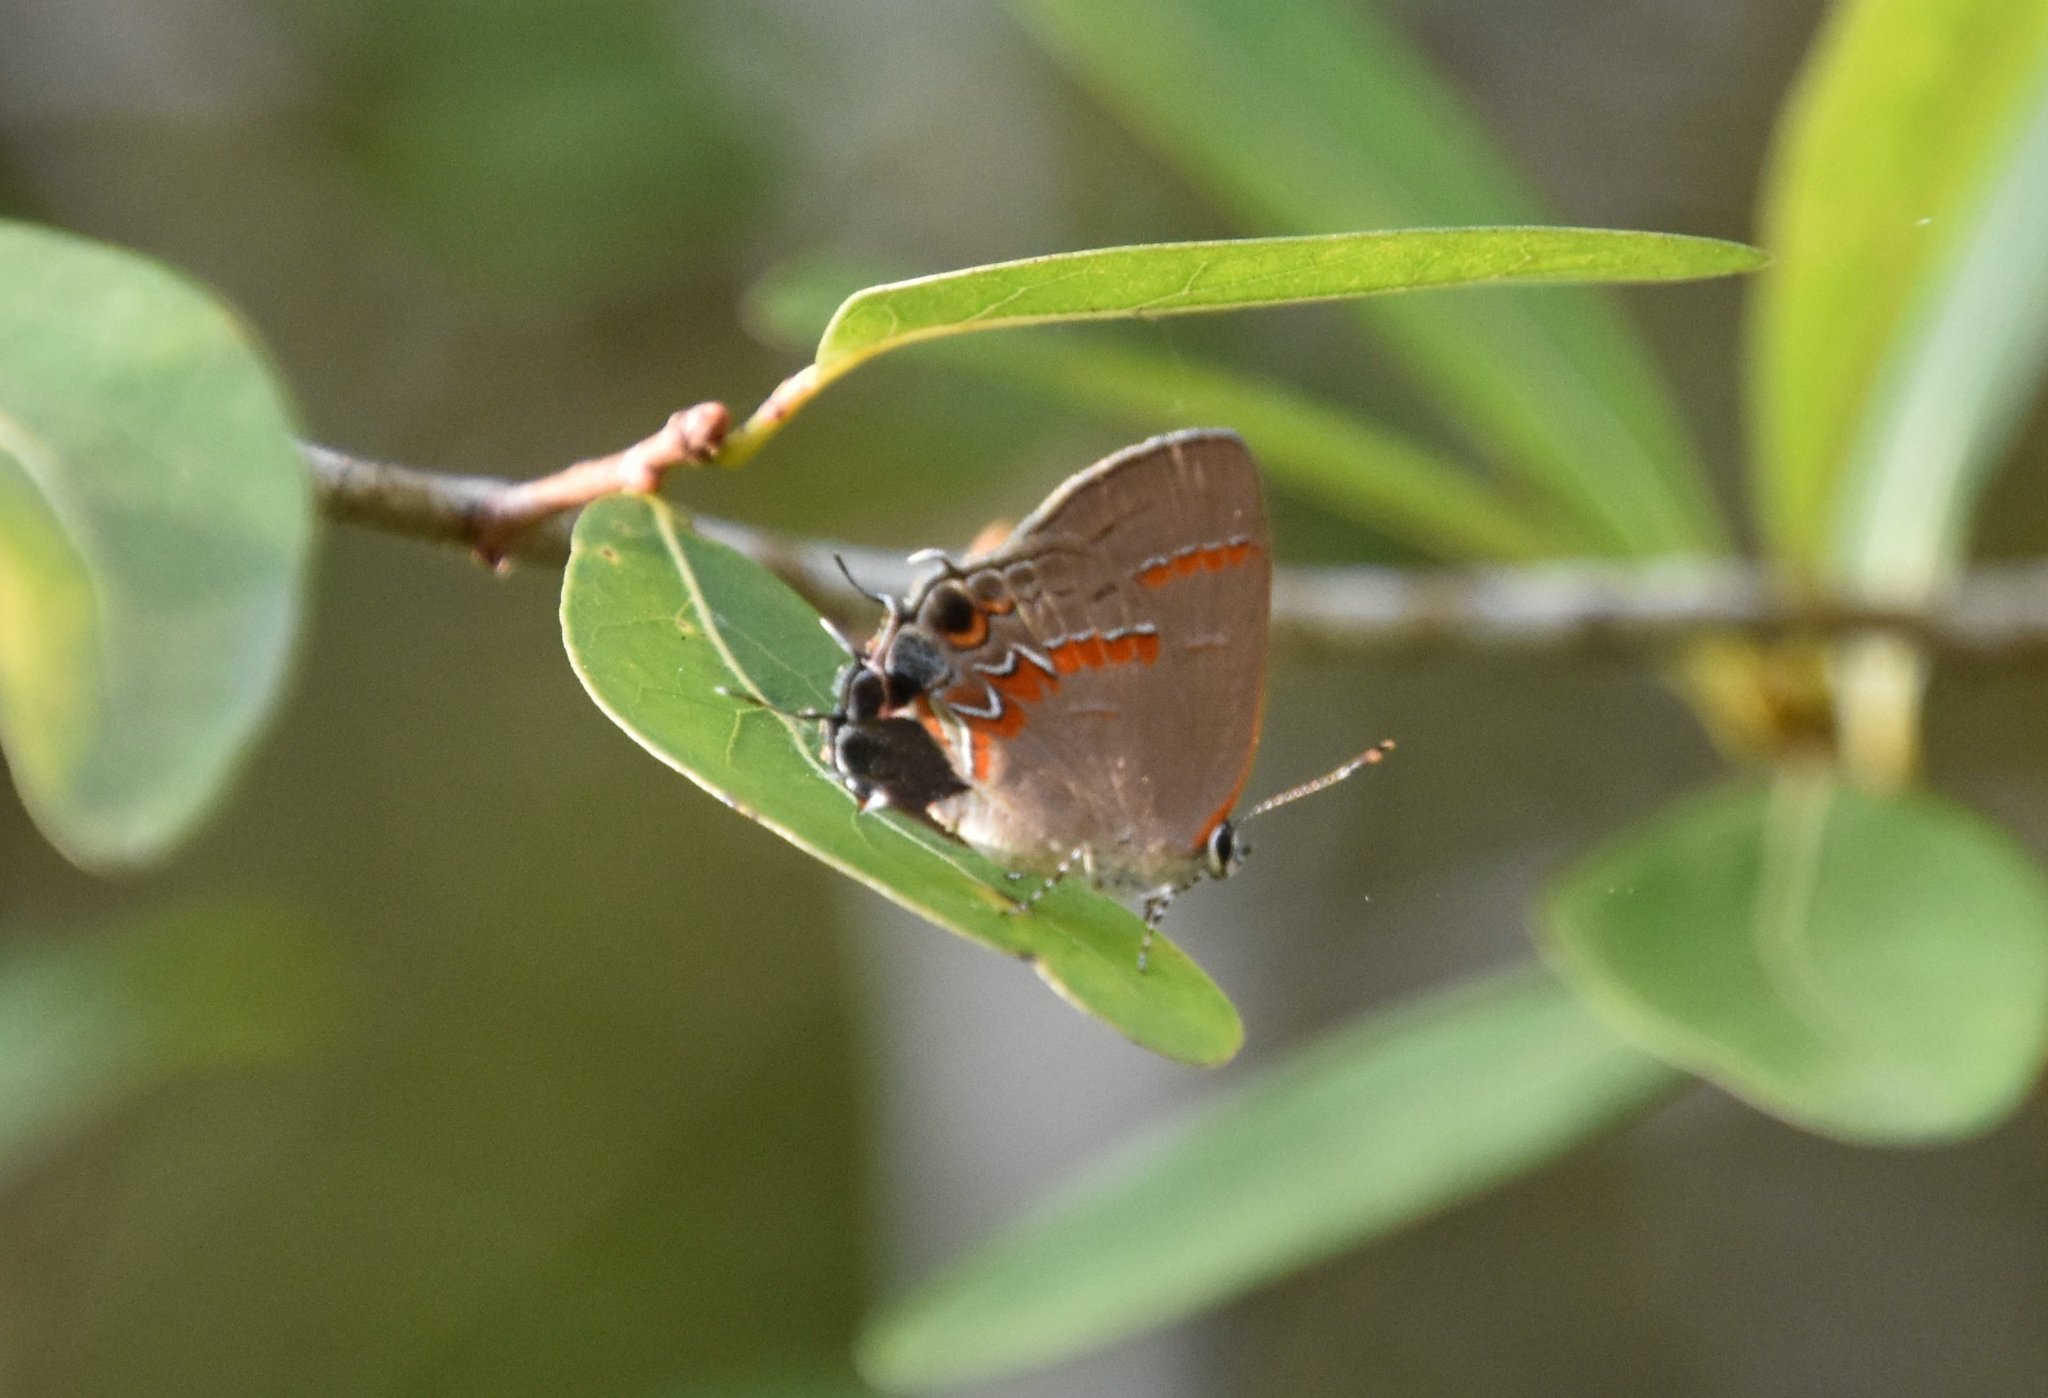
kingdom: Animalia
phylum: Arthropoda
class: Insecta
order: Lepidoptera
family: Lycaenidae
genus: Calycopis
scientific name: Calycopis cecrops
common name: Red-banded hairstreak
